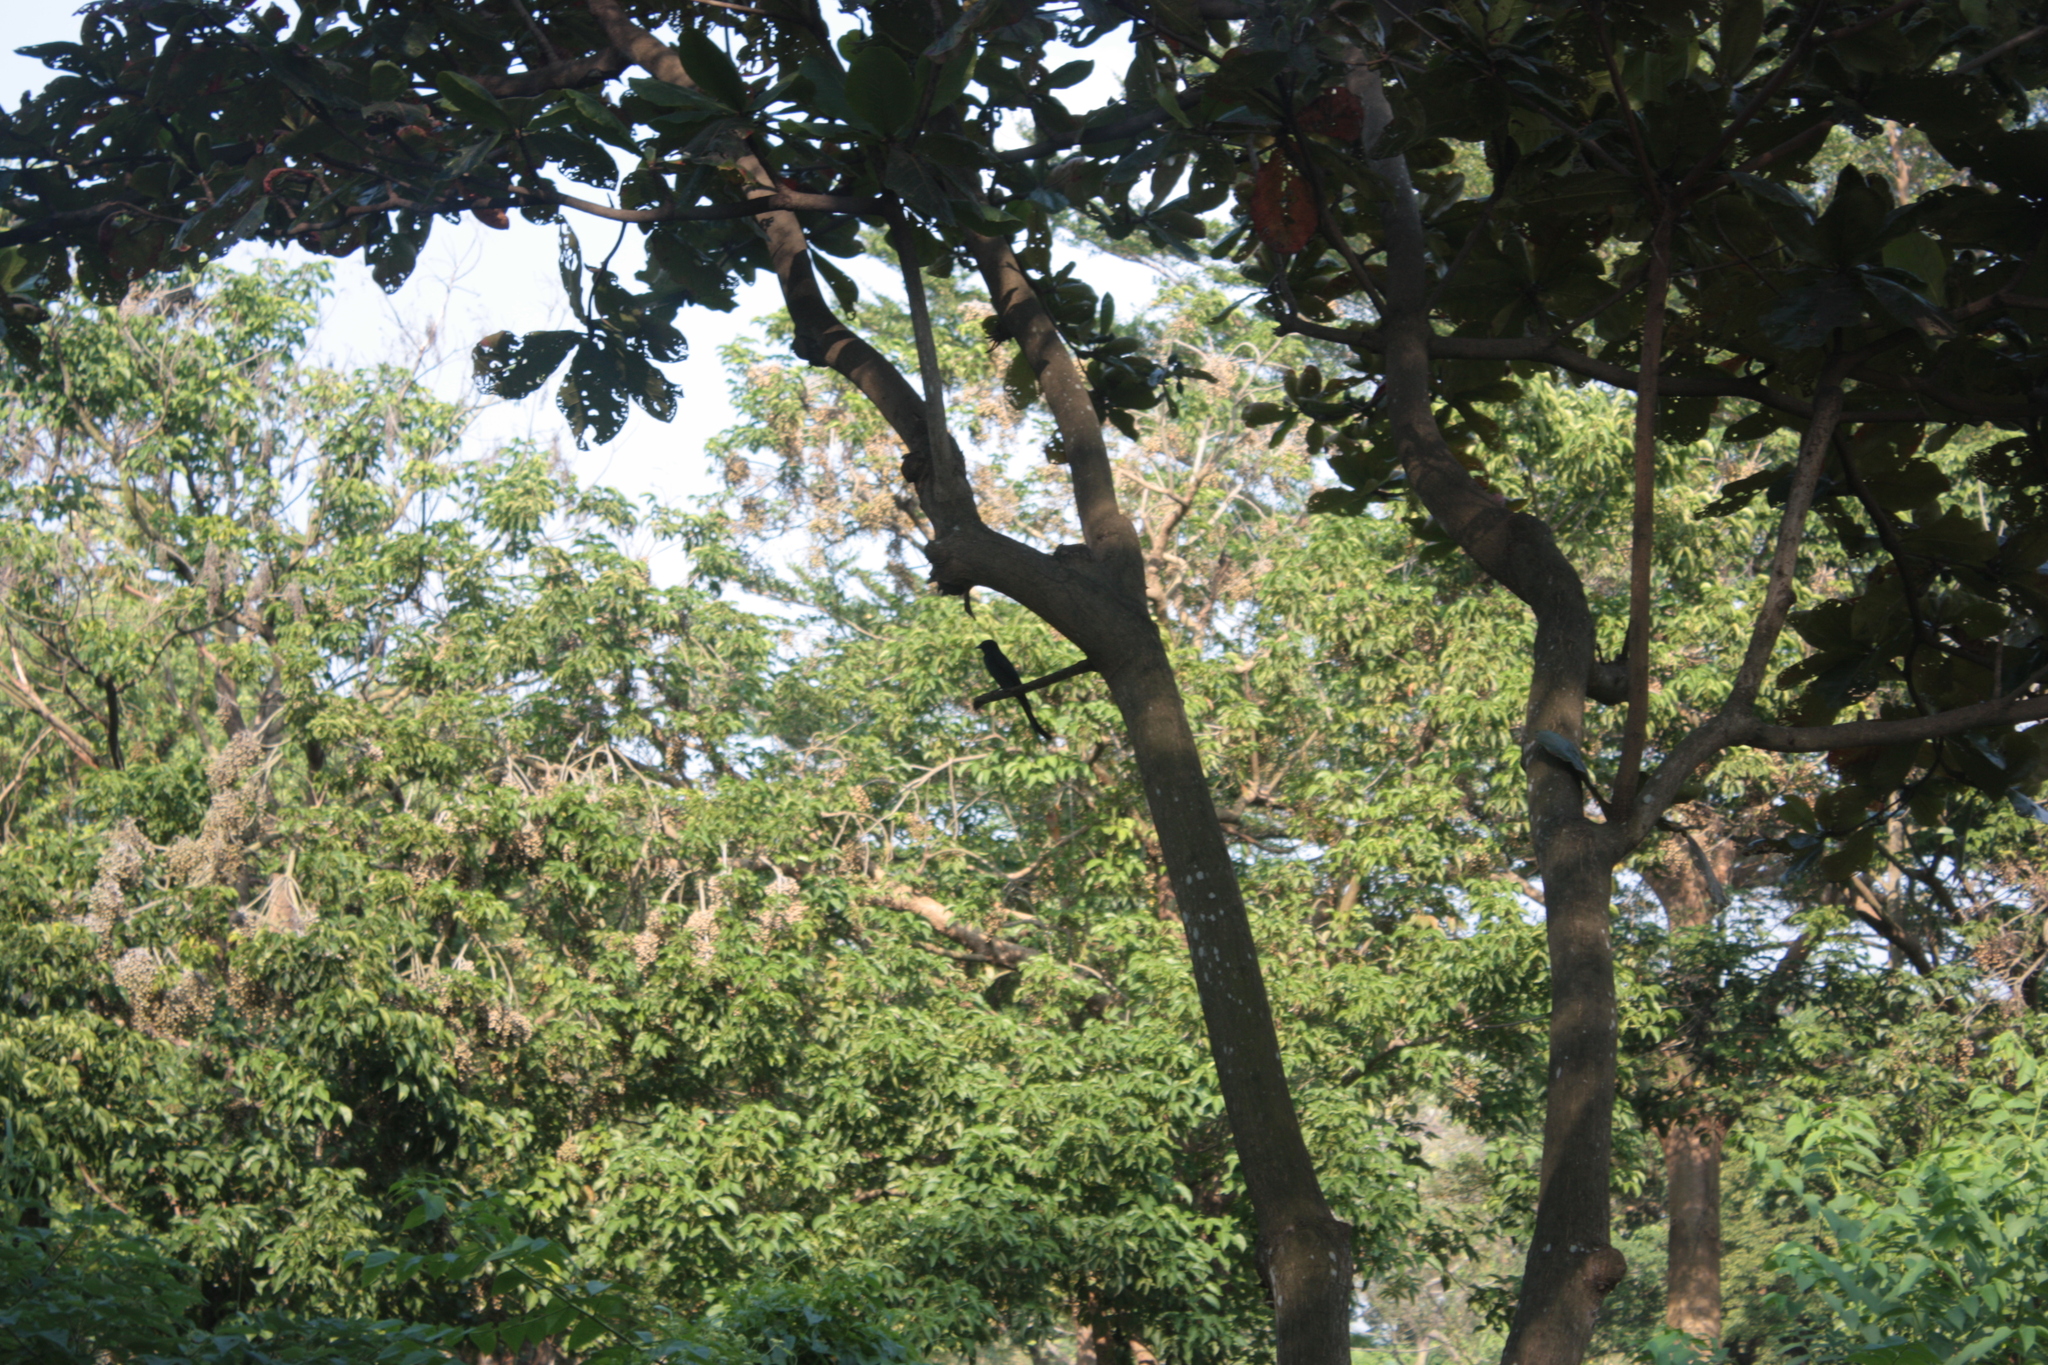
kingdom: Animalia
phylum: Chordata
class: Aves
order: Passeriformes
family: Dicruridae
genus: Dicrurus
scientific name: Dicrurus macrocercus
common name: Black drongo
